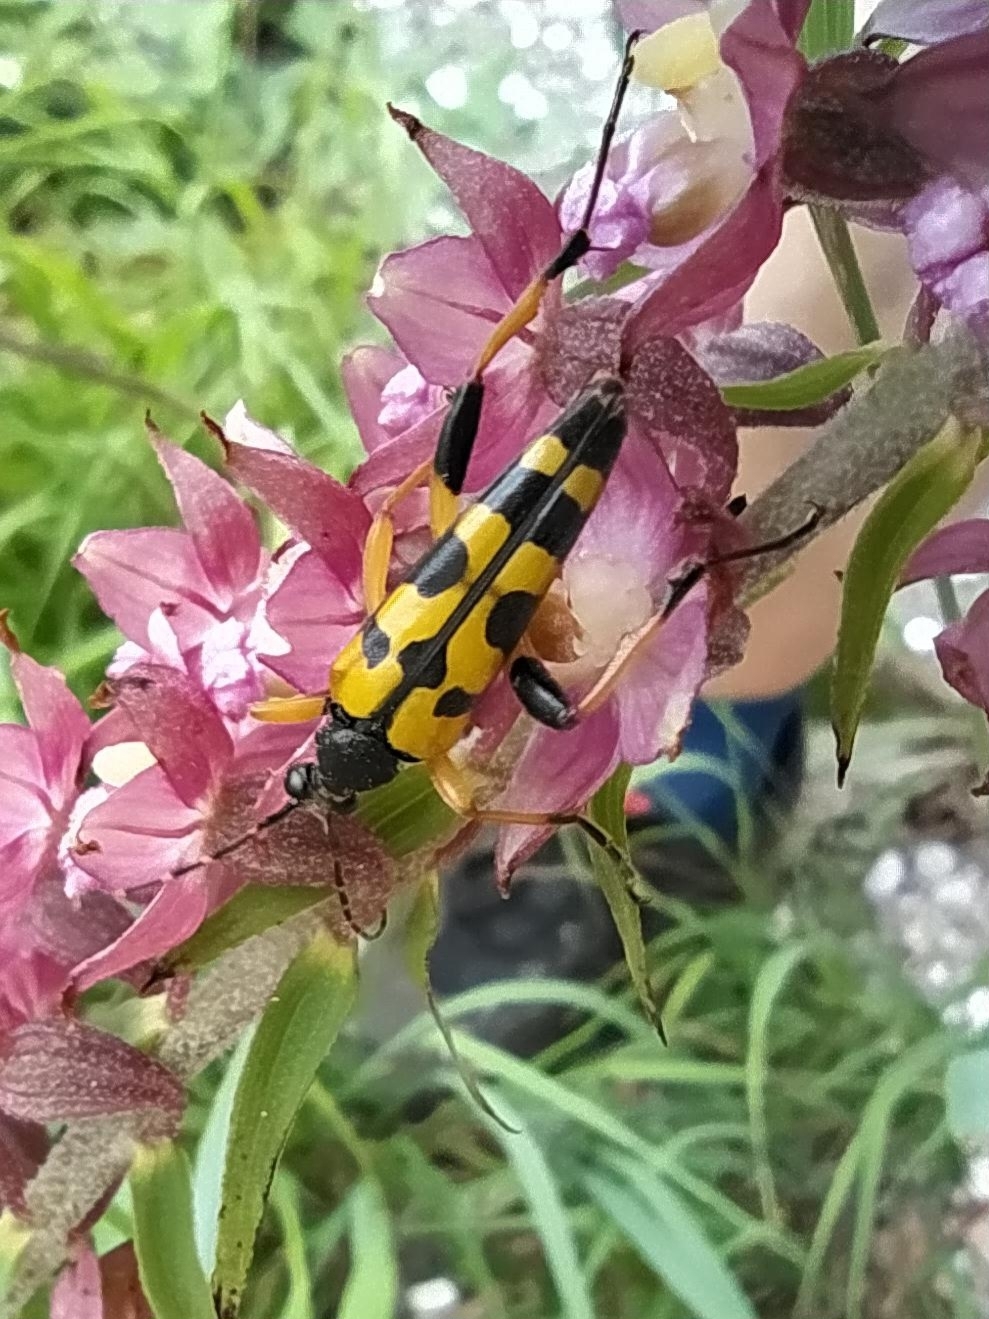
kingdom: Animalia
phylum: Arthropoda
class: Insecta
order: Coleoptera
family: Cerambycidae
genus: Rutpela
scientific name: Rutpela maculata
